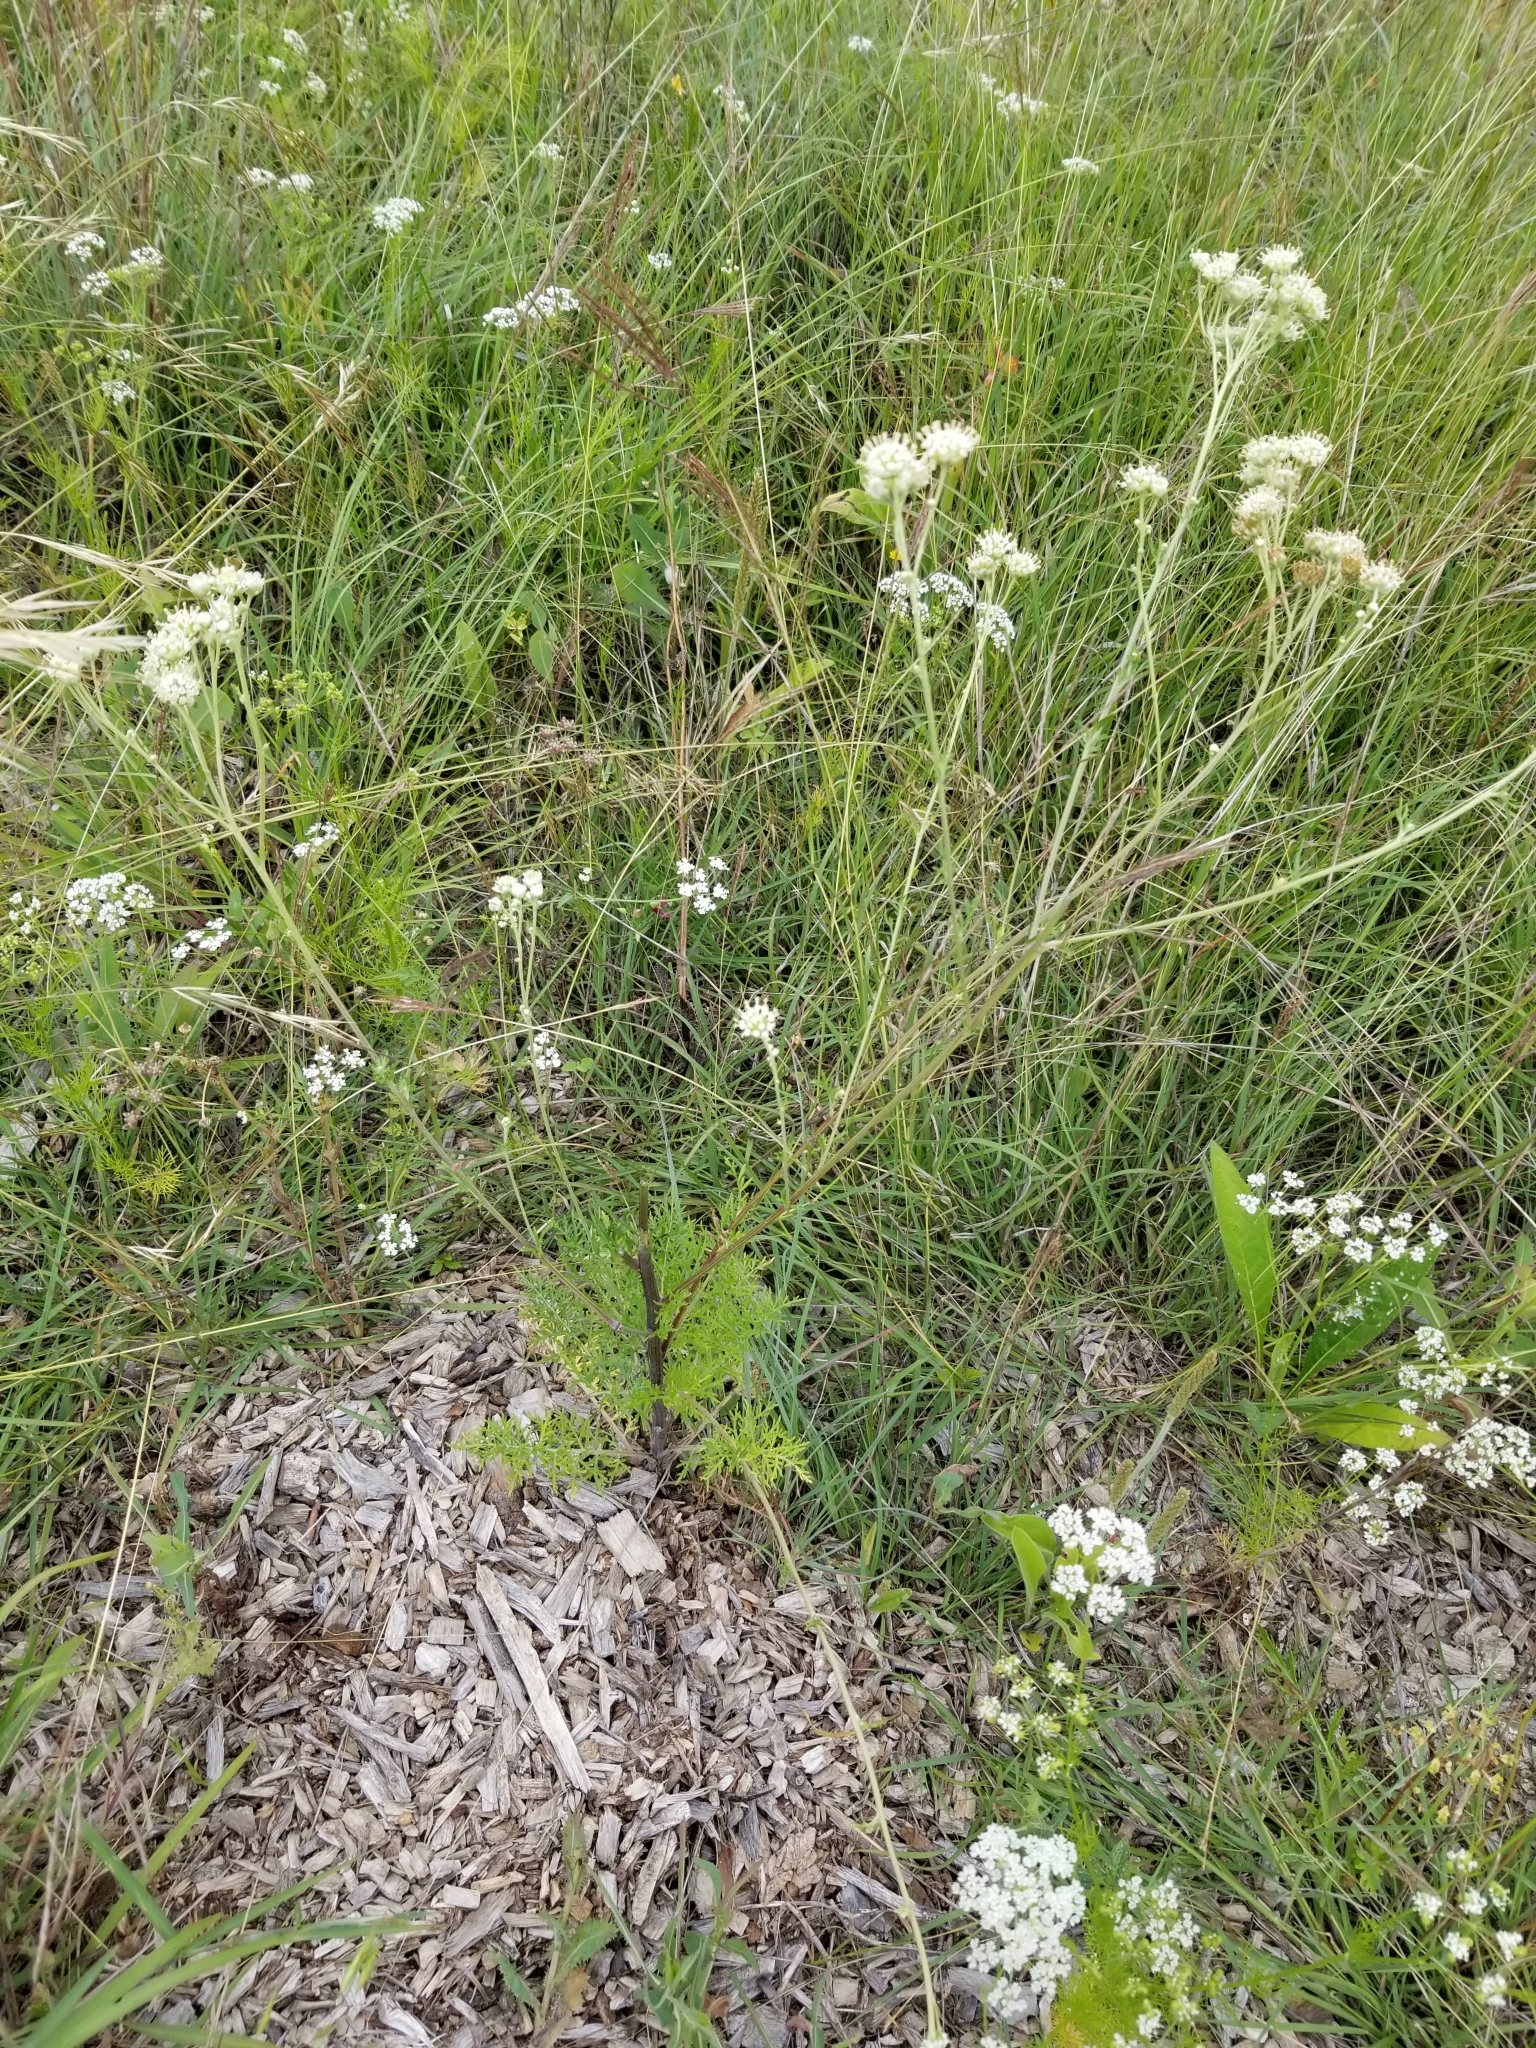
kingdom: Plantae
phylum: Tracheophyta
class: Magnoliopsida
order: Asterales
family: Asteraceae
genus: Hymenopappus
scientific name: Hymenopappus scabiosaeus
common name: Carolina woollywhite
